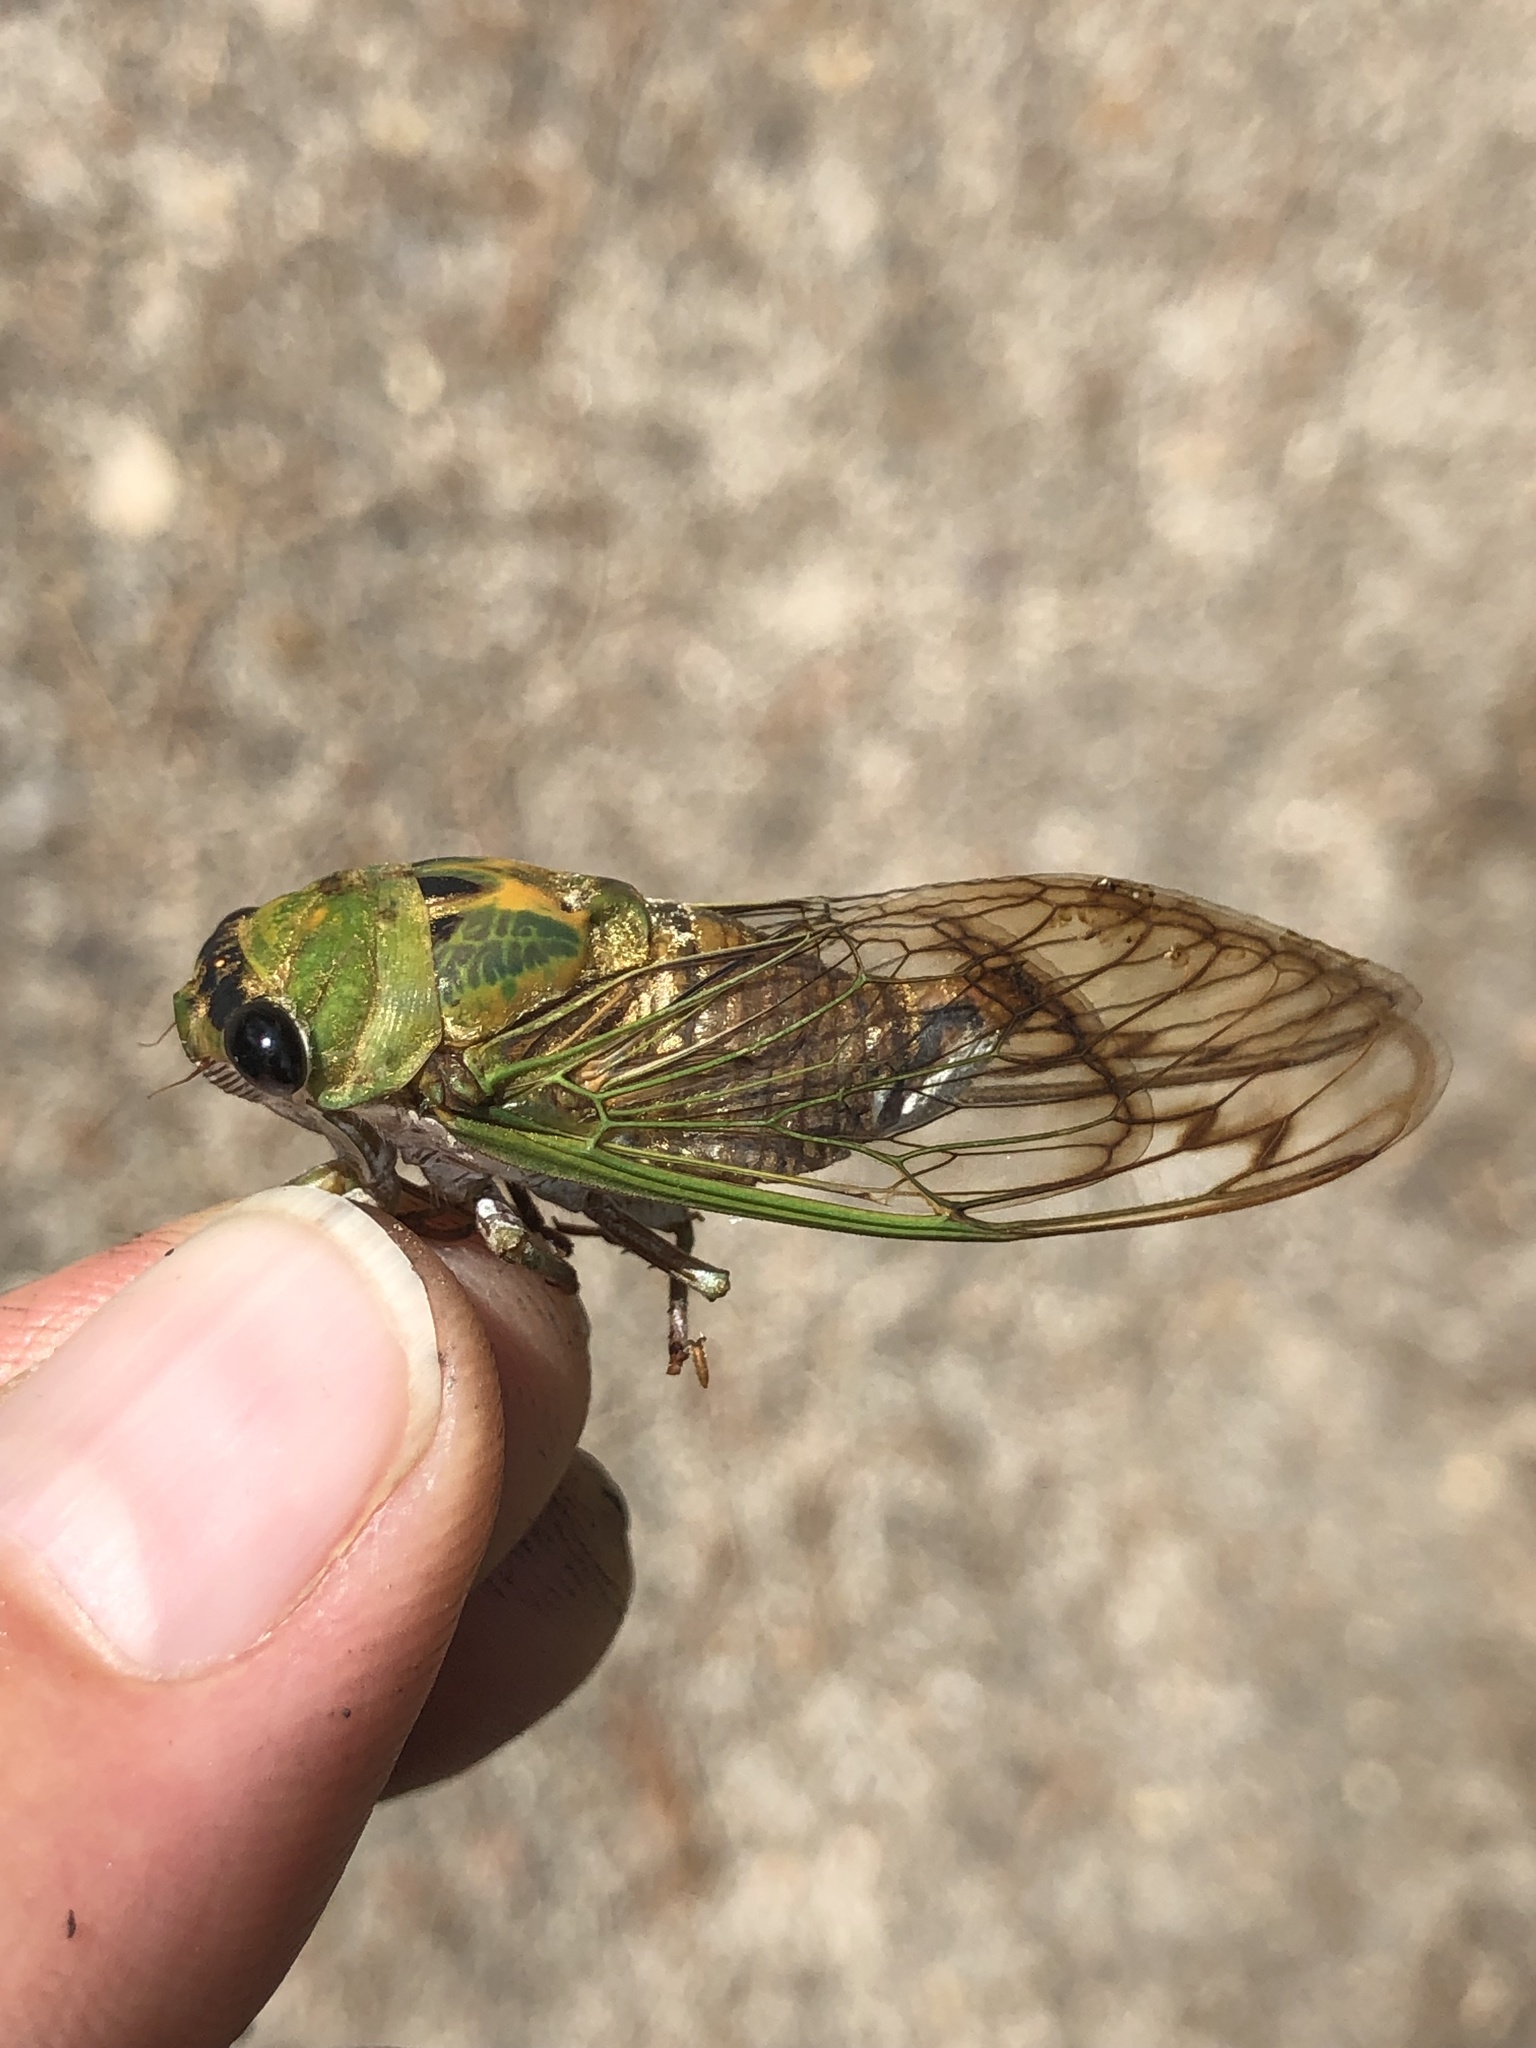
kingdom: Animalia
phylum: Arthropoda
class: Insecta
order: Hemiptera
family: Cicadidae
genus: Neotibicen
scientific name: Neotibicen superbus
